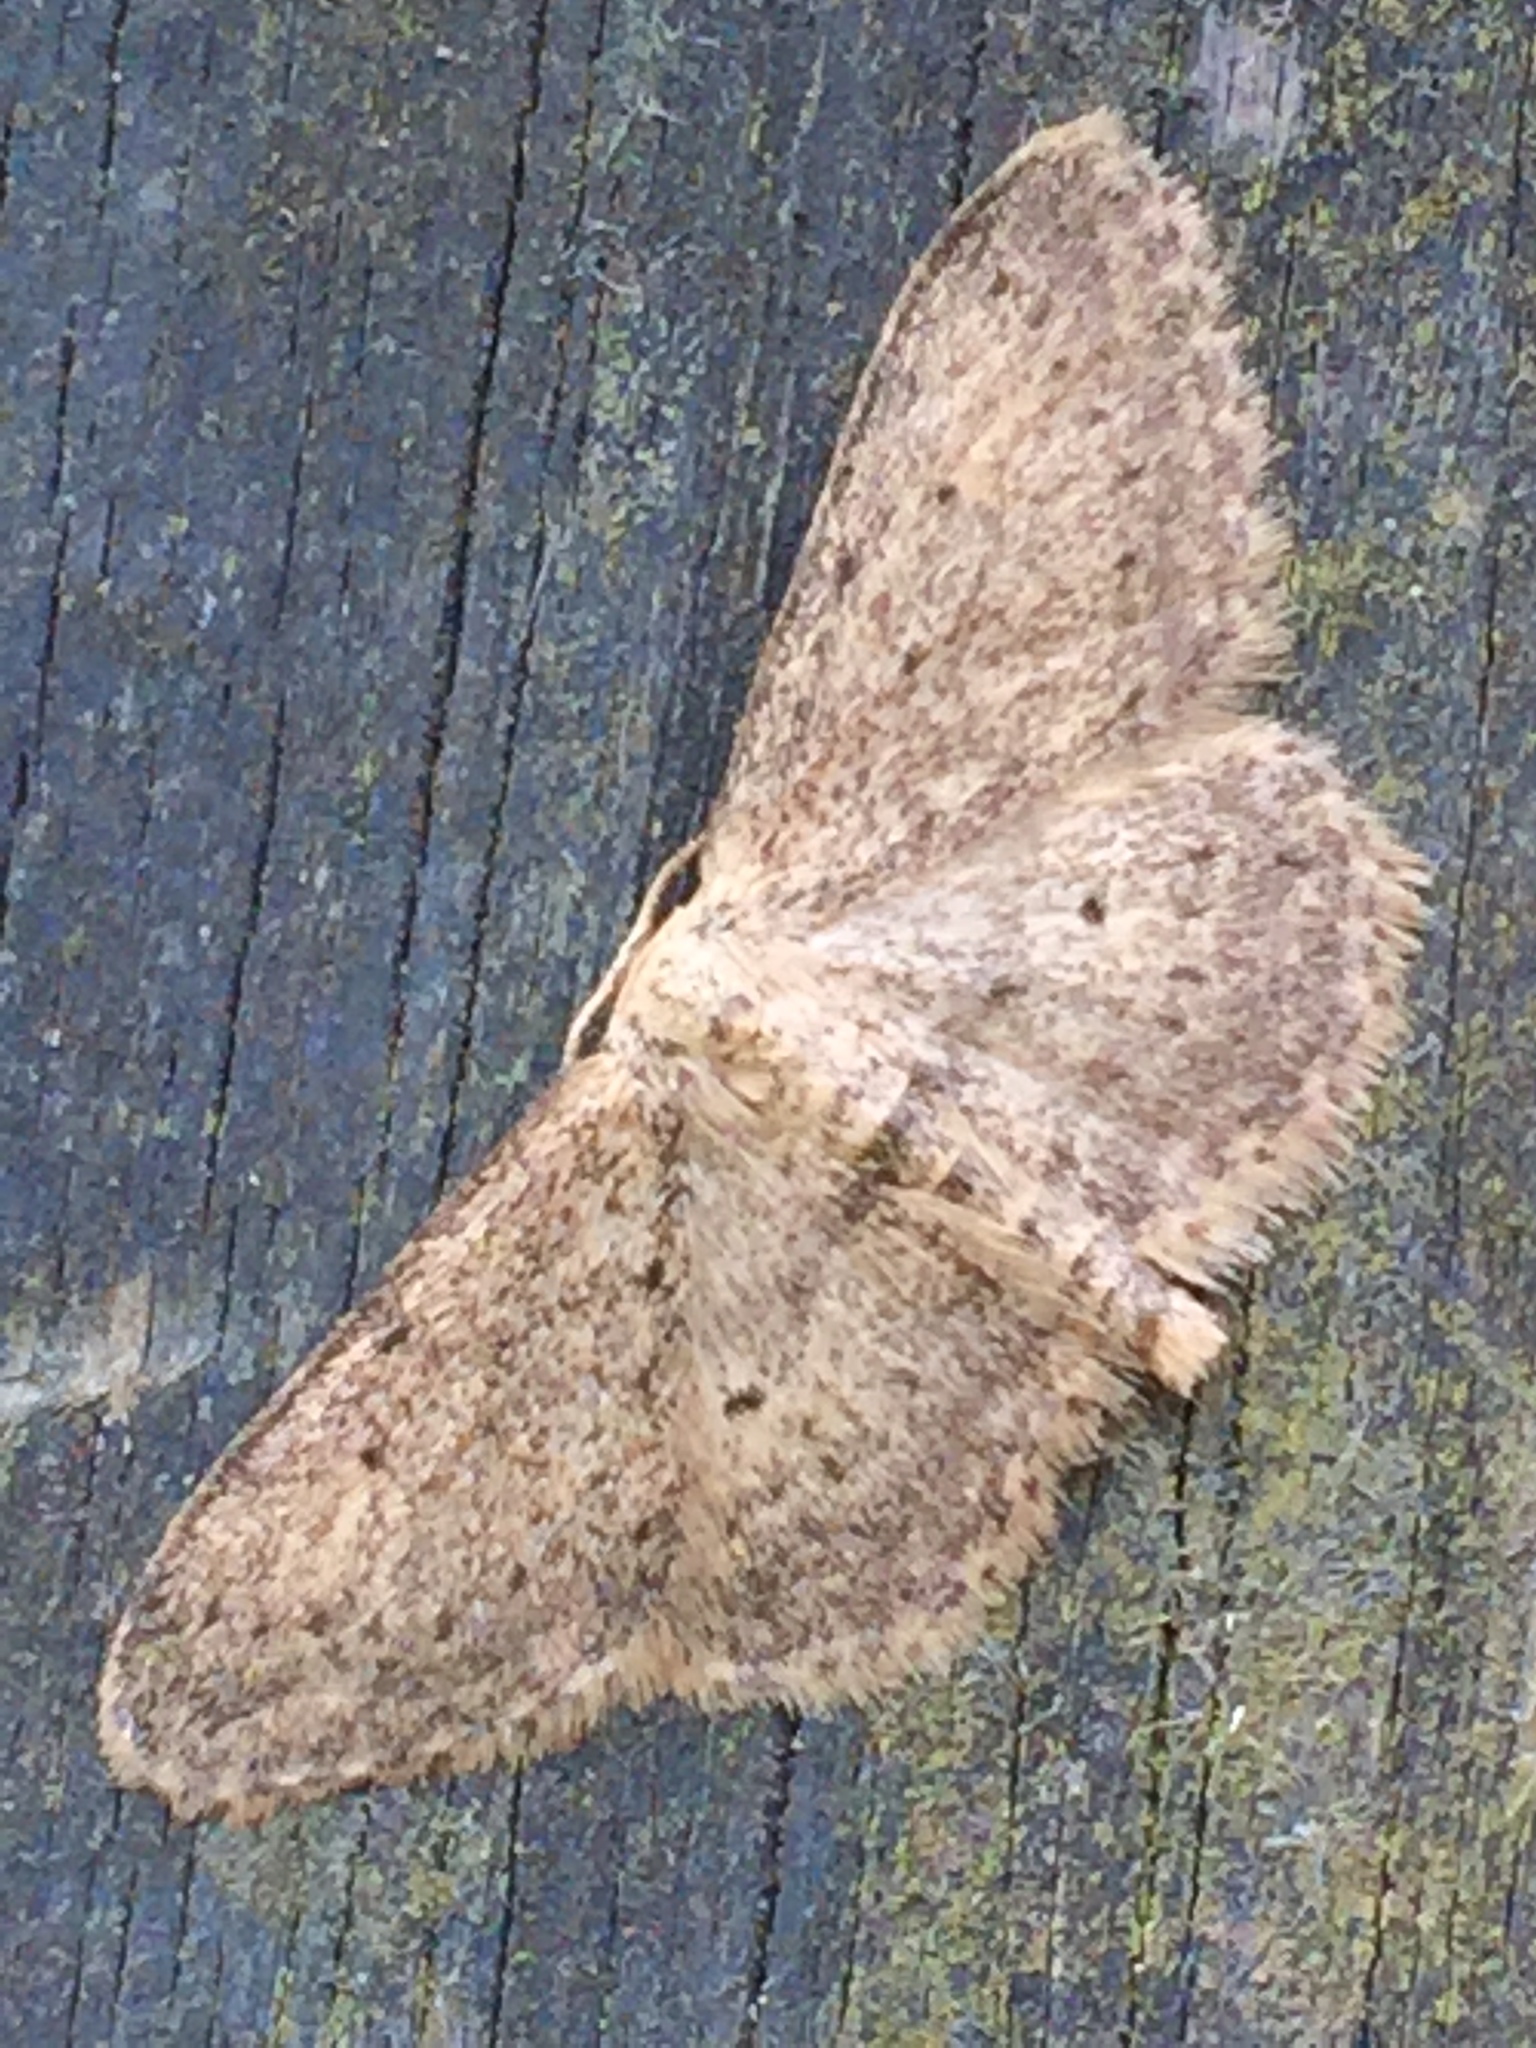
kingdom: Animalia
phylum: Arthropoda
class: Insecta
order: Lepidoptera
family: Geometridae
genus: Idaea
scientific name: Idaea seriata
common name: Small dusty wave
